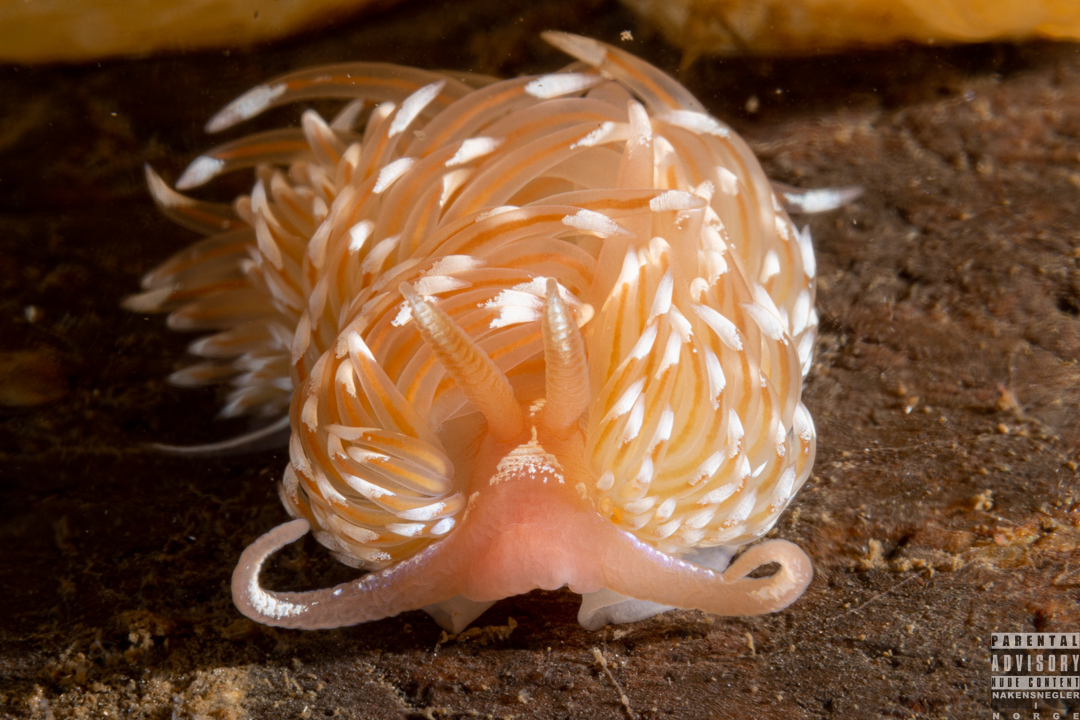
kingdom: Animalia
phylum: Mollusca
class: Gastropoda
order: Nudibranchia
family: Facelinidae
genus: Facelina
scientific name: Facelina bostoniensis
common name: Boston facelina
